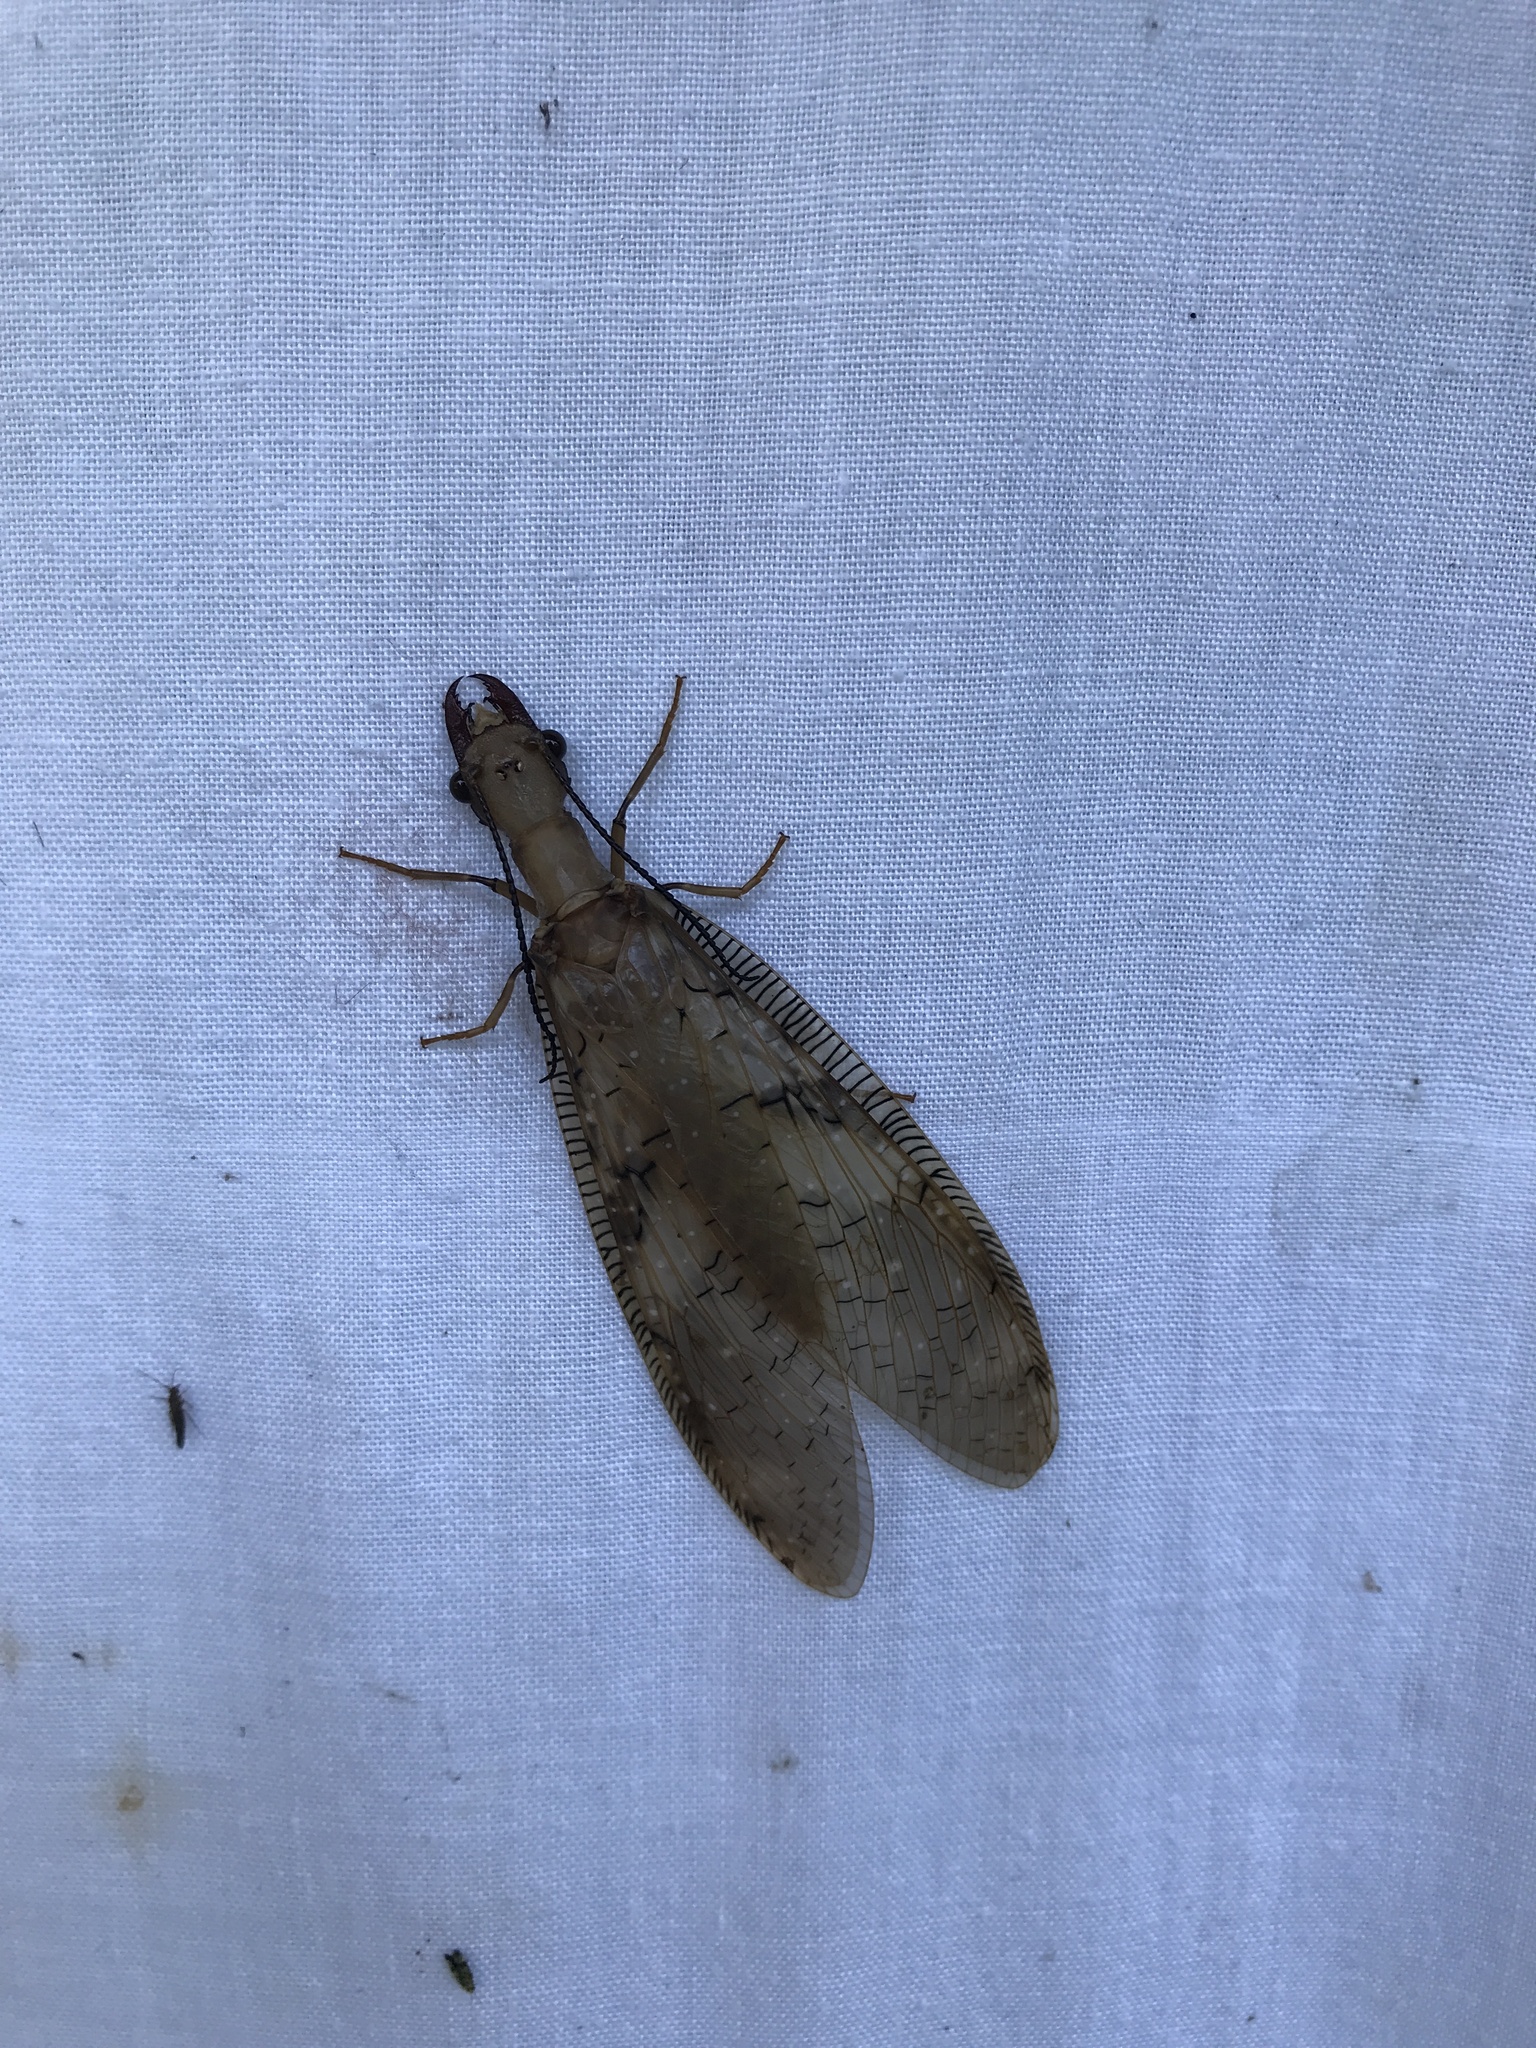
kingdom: Animalia
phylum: Arthropoda
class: Insecta
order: Megaloptera
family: Corydalidae
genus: Corydalus
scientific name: Corydalus flavicornis
